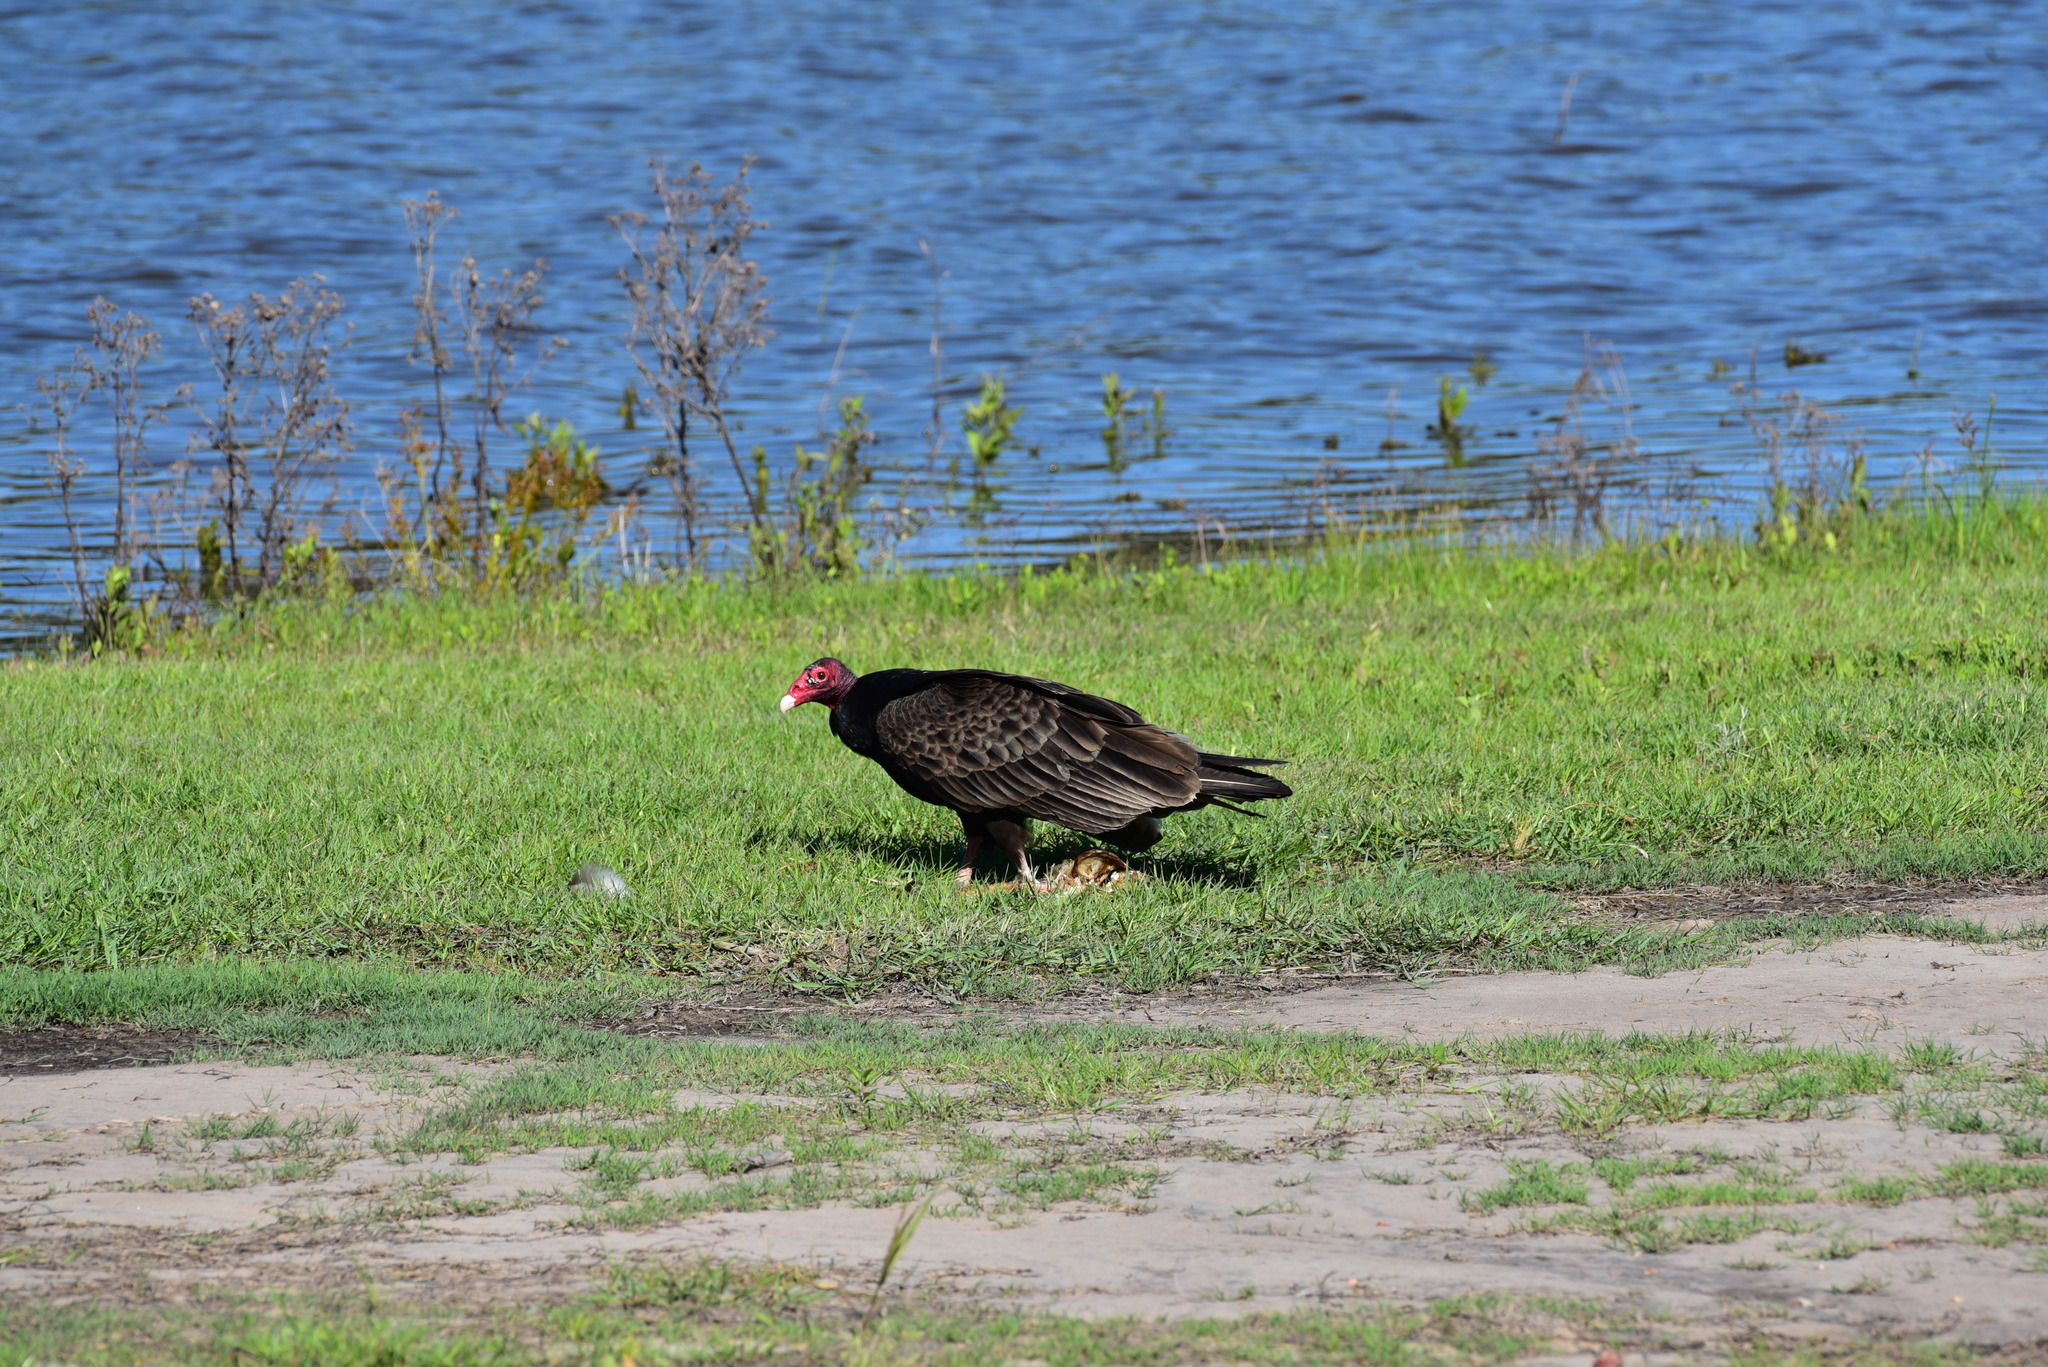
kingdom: Animalia
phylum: Chordata
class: Aves
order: Accipitriformes
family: Cathartidae
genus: Cathartes
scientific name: Cathartes aura
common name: Turkey vulture
